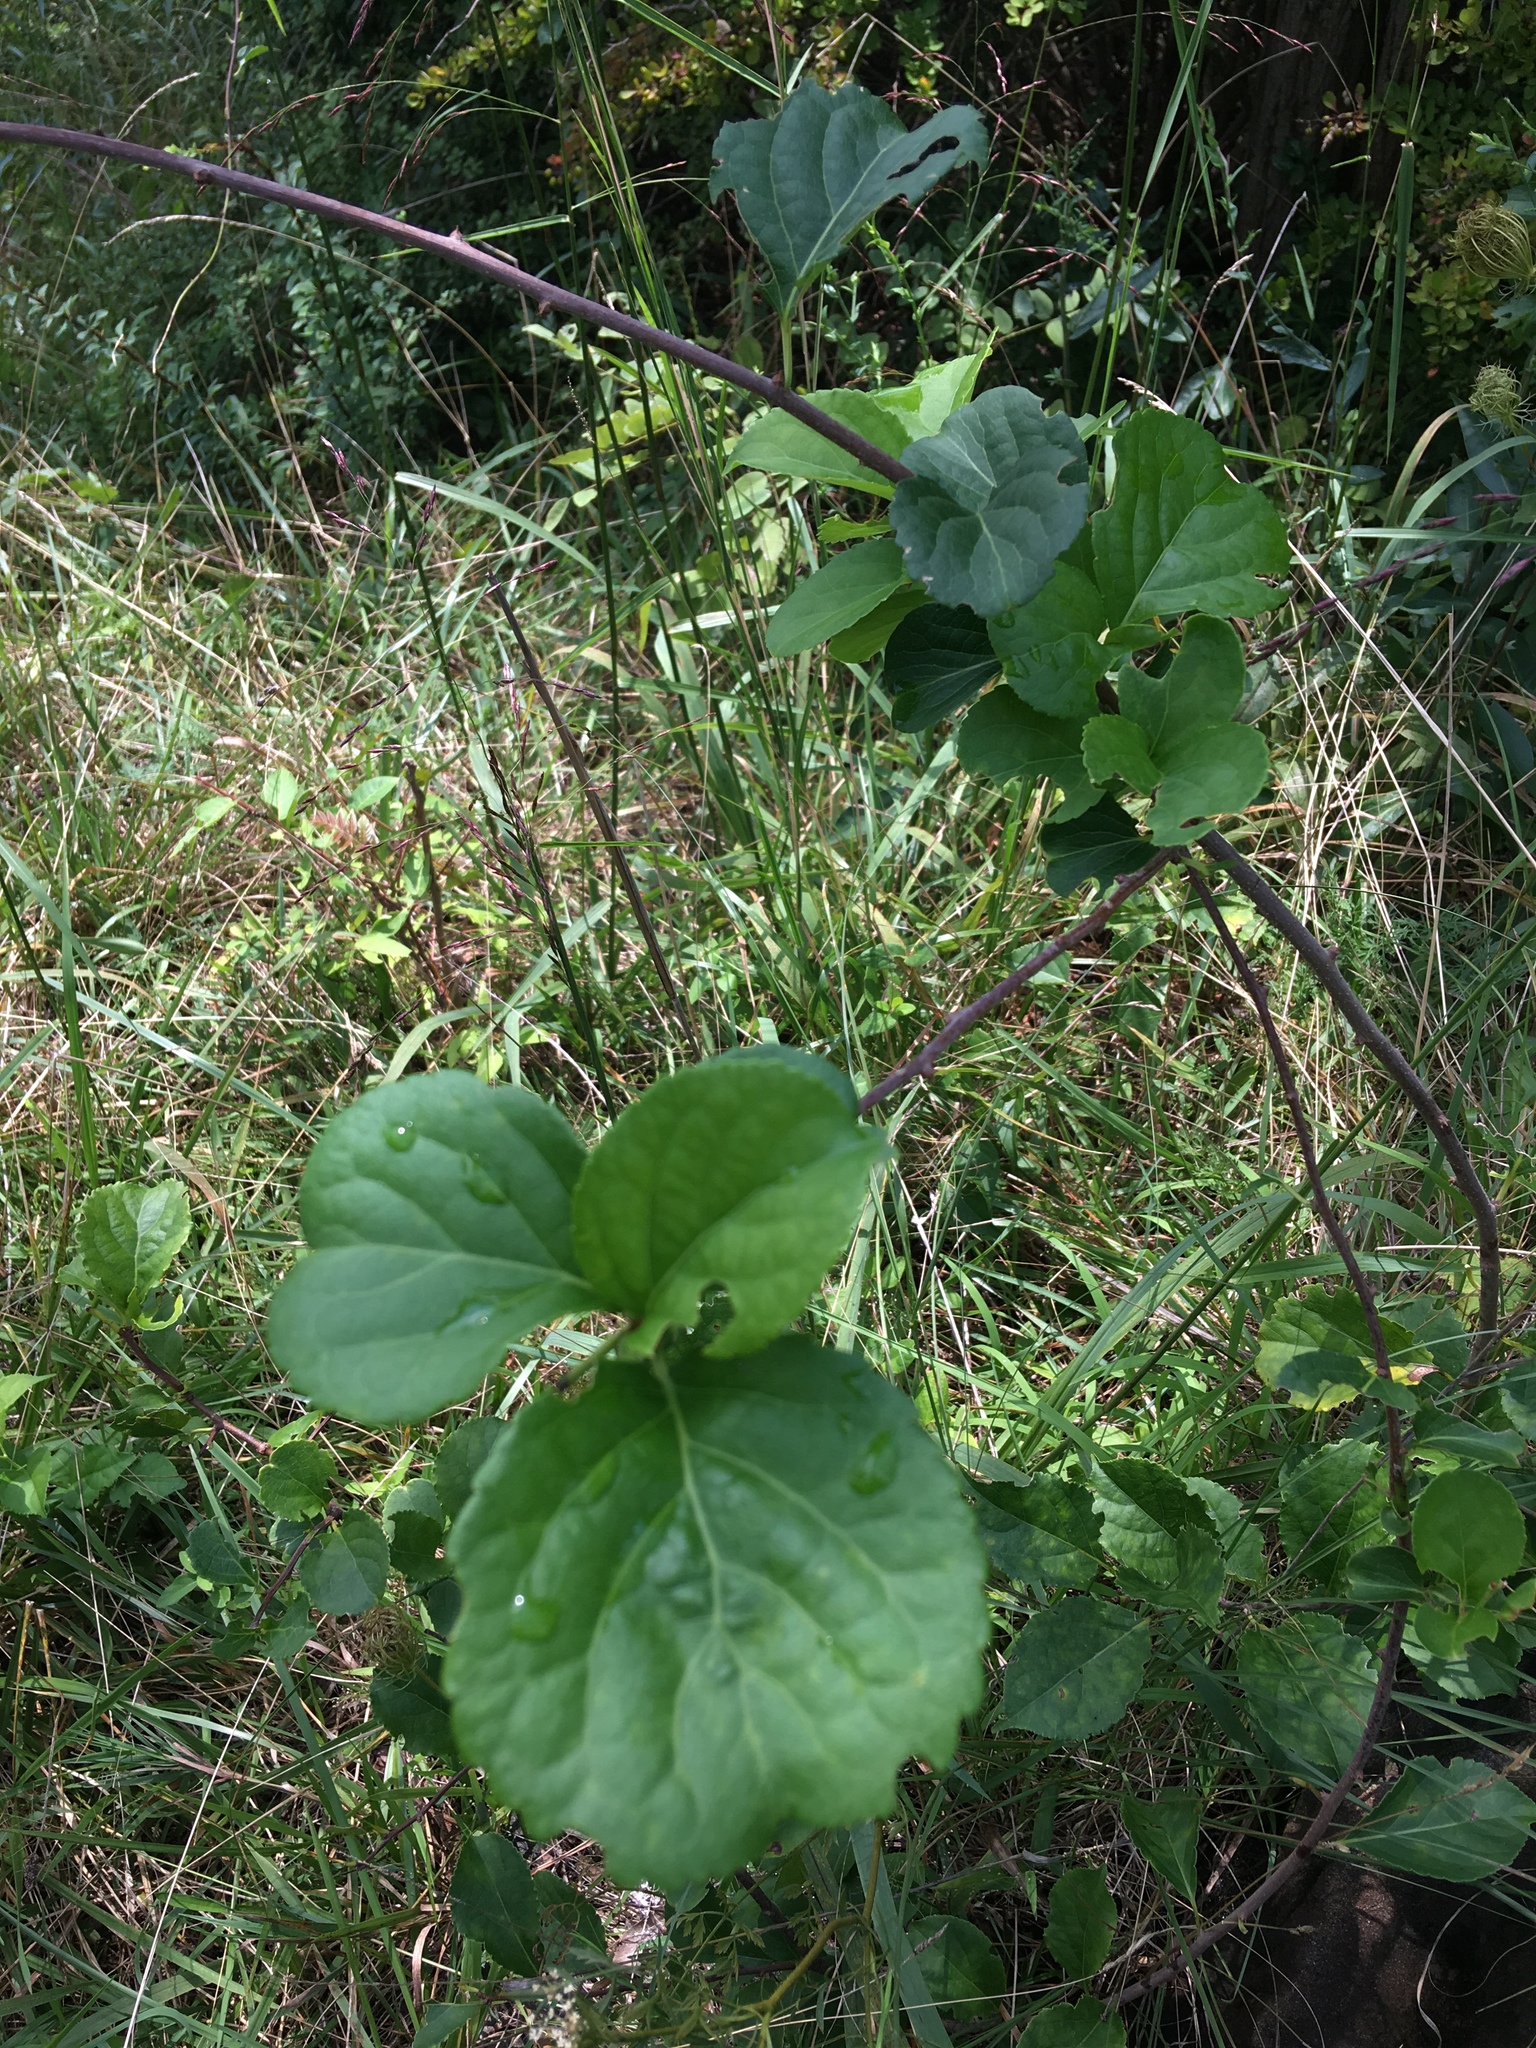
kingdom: Plantae
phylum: Tracheophyta
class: Magnoliopsida
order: Celastrales
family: Celastraceae
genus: Celastrus
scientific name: Celastrus orbiculatus
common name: Oriental bittersweet
